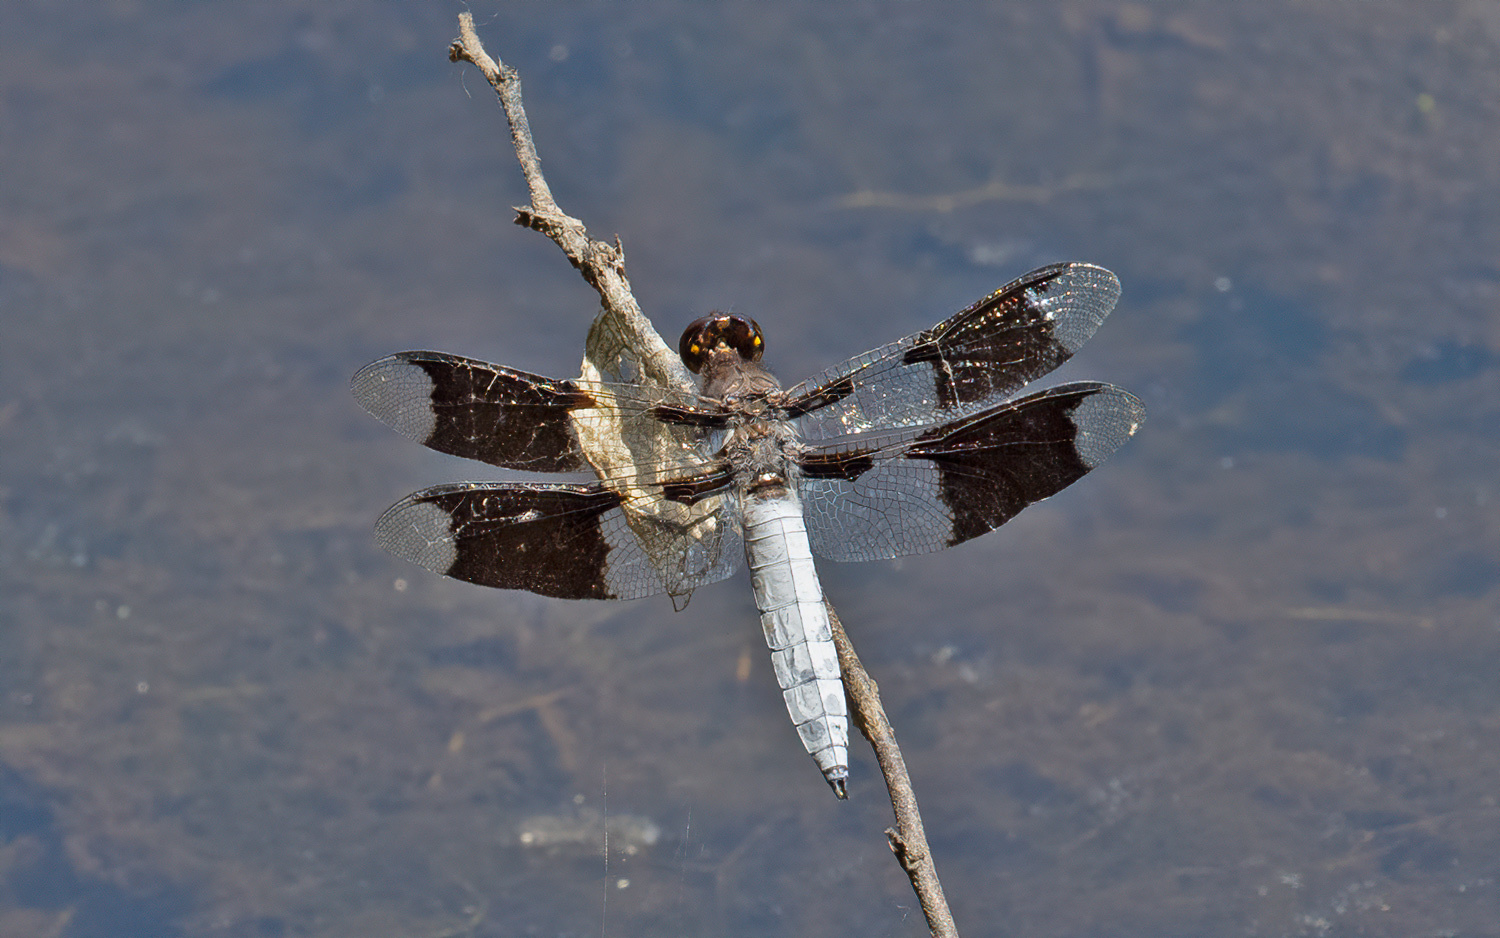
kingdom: Animalia
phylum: Arthropoda
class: Insecta
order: Odonata
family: Libellulidae
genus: Plathemis
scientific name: Plathemis lydia
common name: Common whitetail
